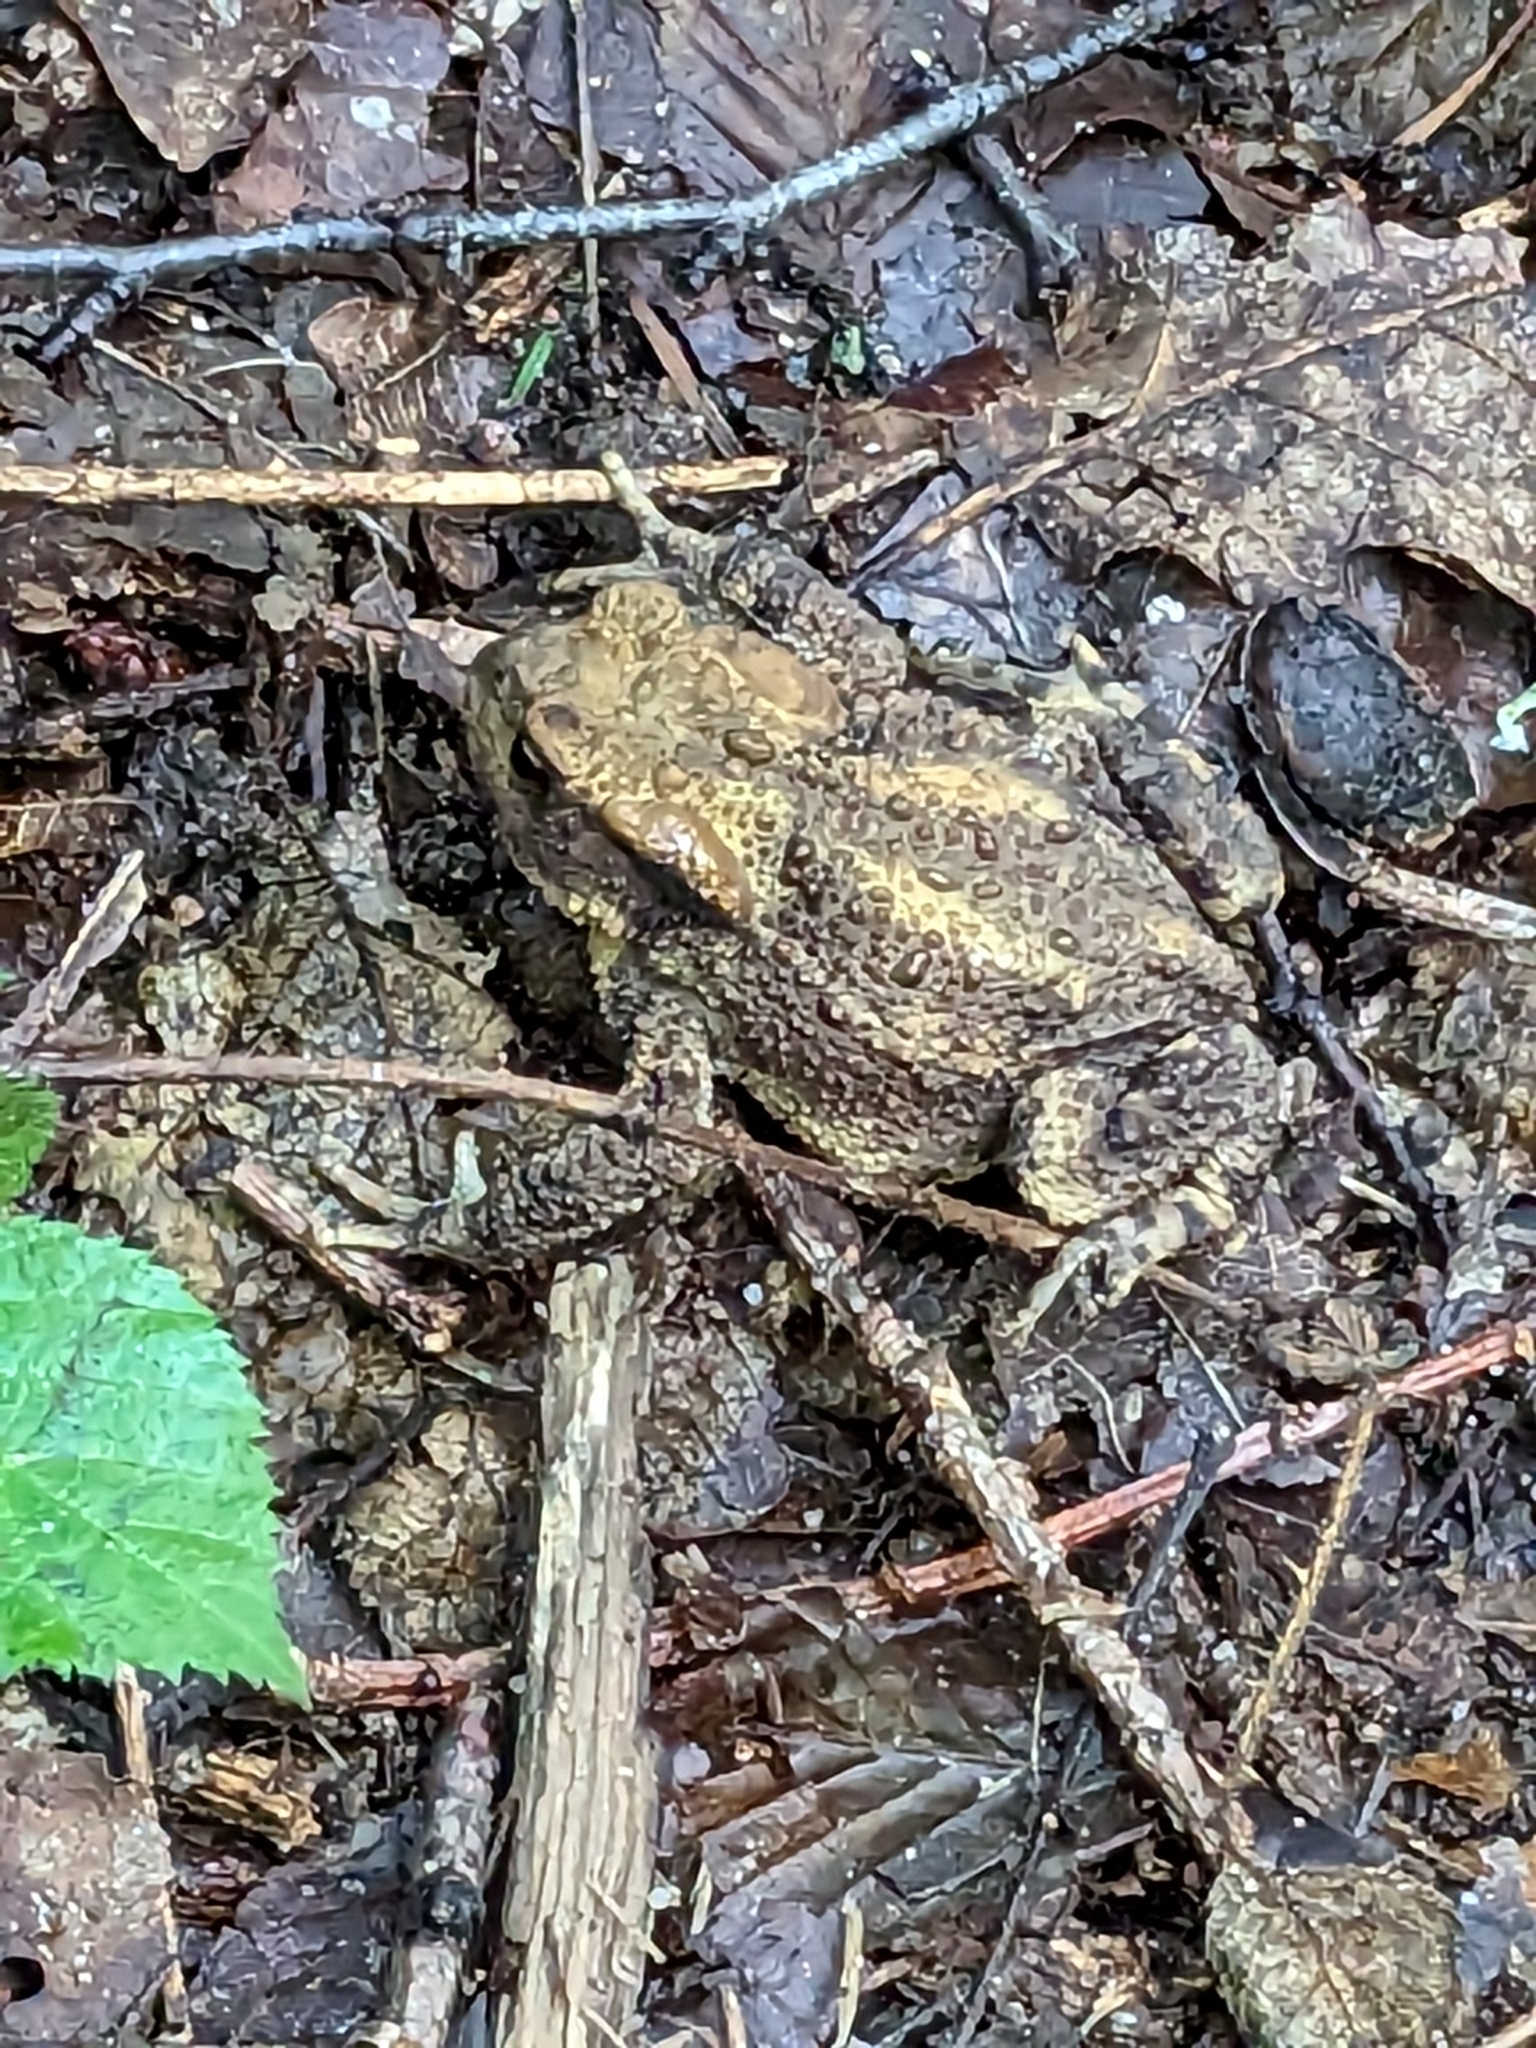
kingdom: Animalia
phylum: Chordata
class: Amphibia
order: Anura
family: Bufonidae
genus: Bufo
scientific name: Bufo bufo
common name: Common toad
